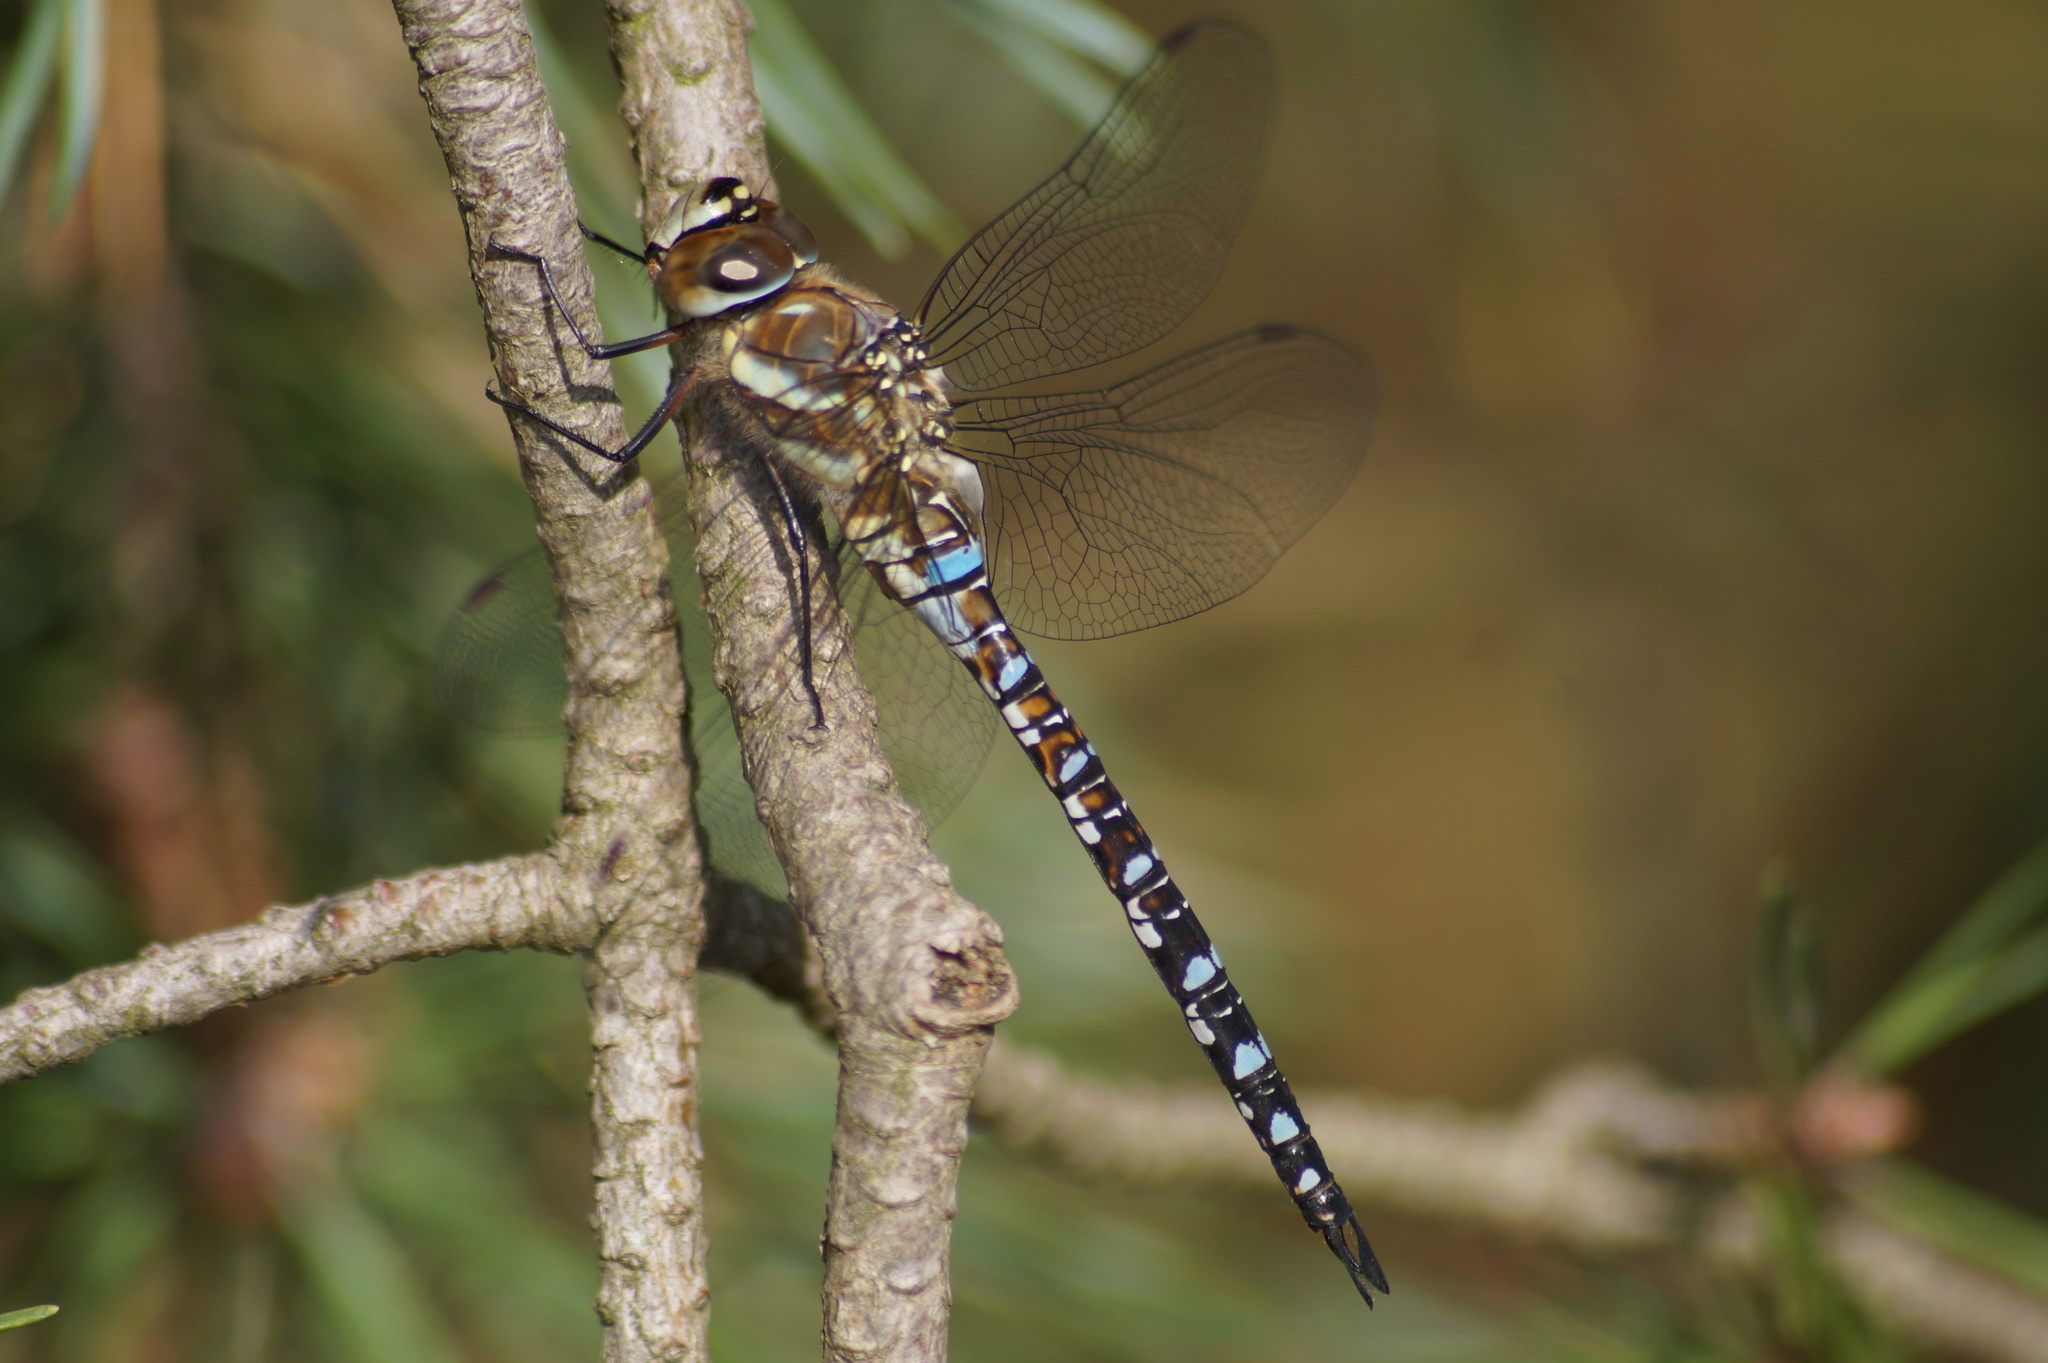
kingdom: Animalia
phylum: Arthropoda
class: Insecta
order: Odonata
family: Aeshnidae
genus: Aeshna
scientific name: Aeshna mixta
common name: Migrant hawker
